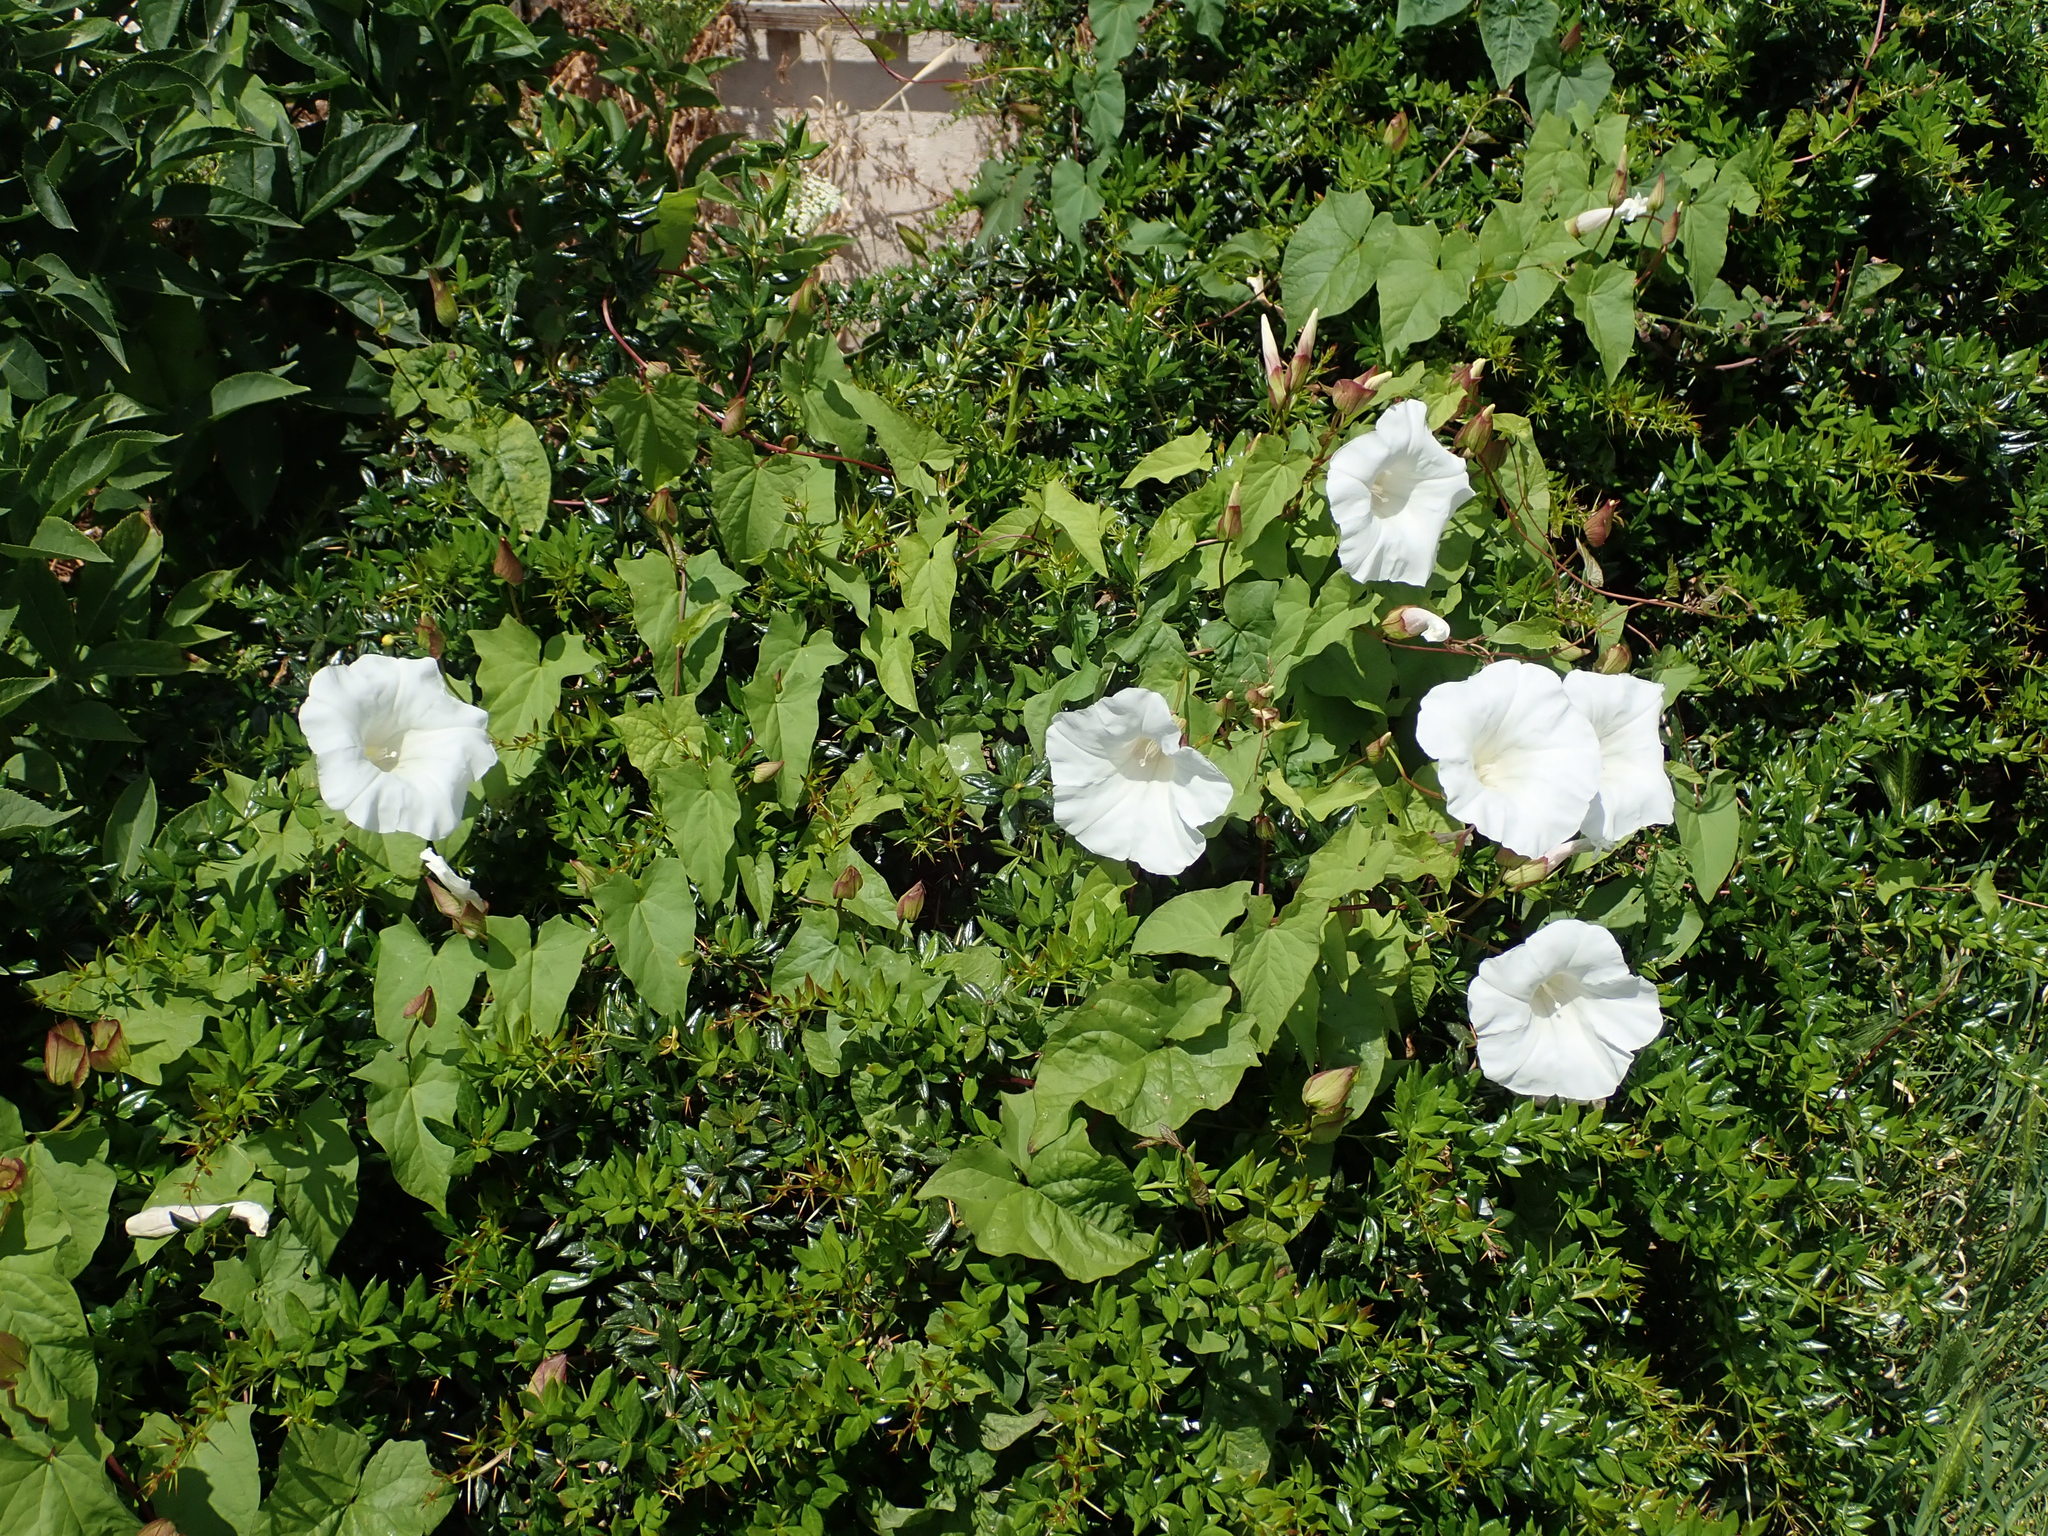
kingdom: Plantae
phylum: Tracheophyta
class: Magnoliopsida
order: Solanales
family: Convolvulaceae
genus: Calystegia
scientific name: Calystegia silvatica
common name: Large bindweed
